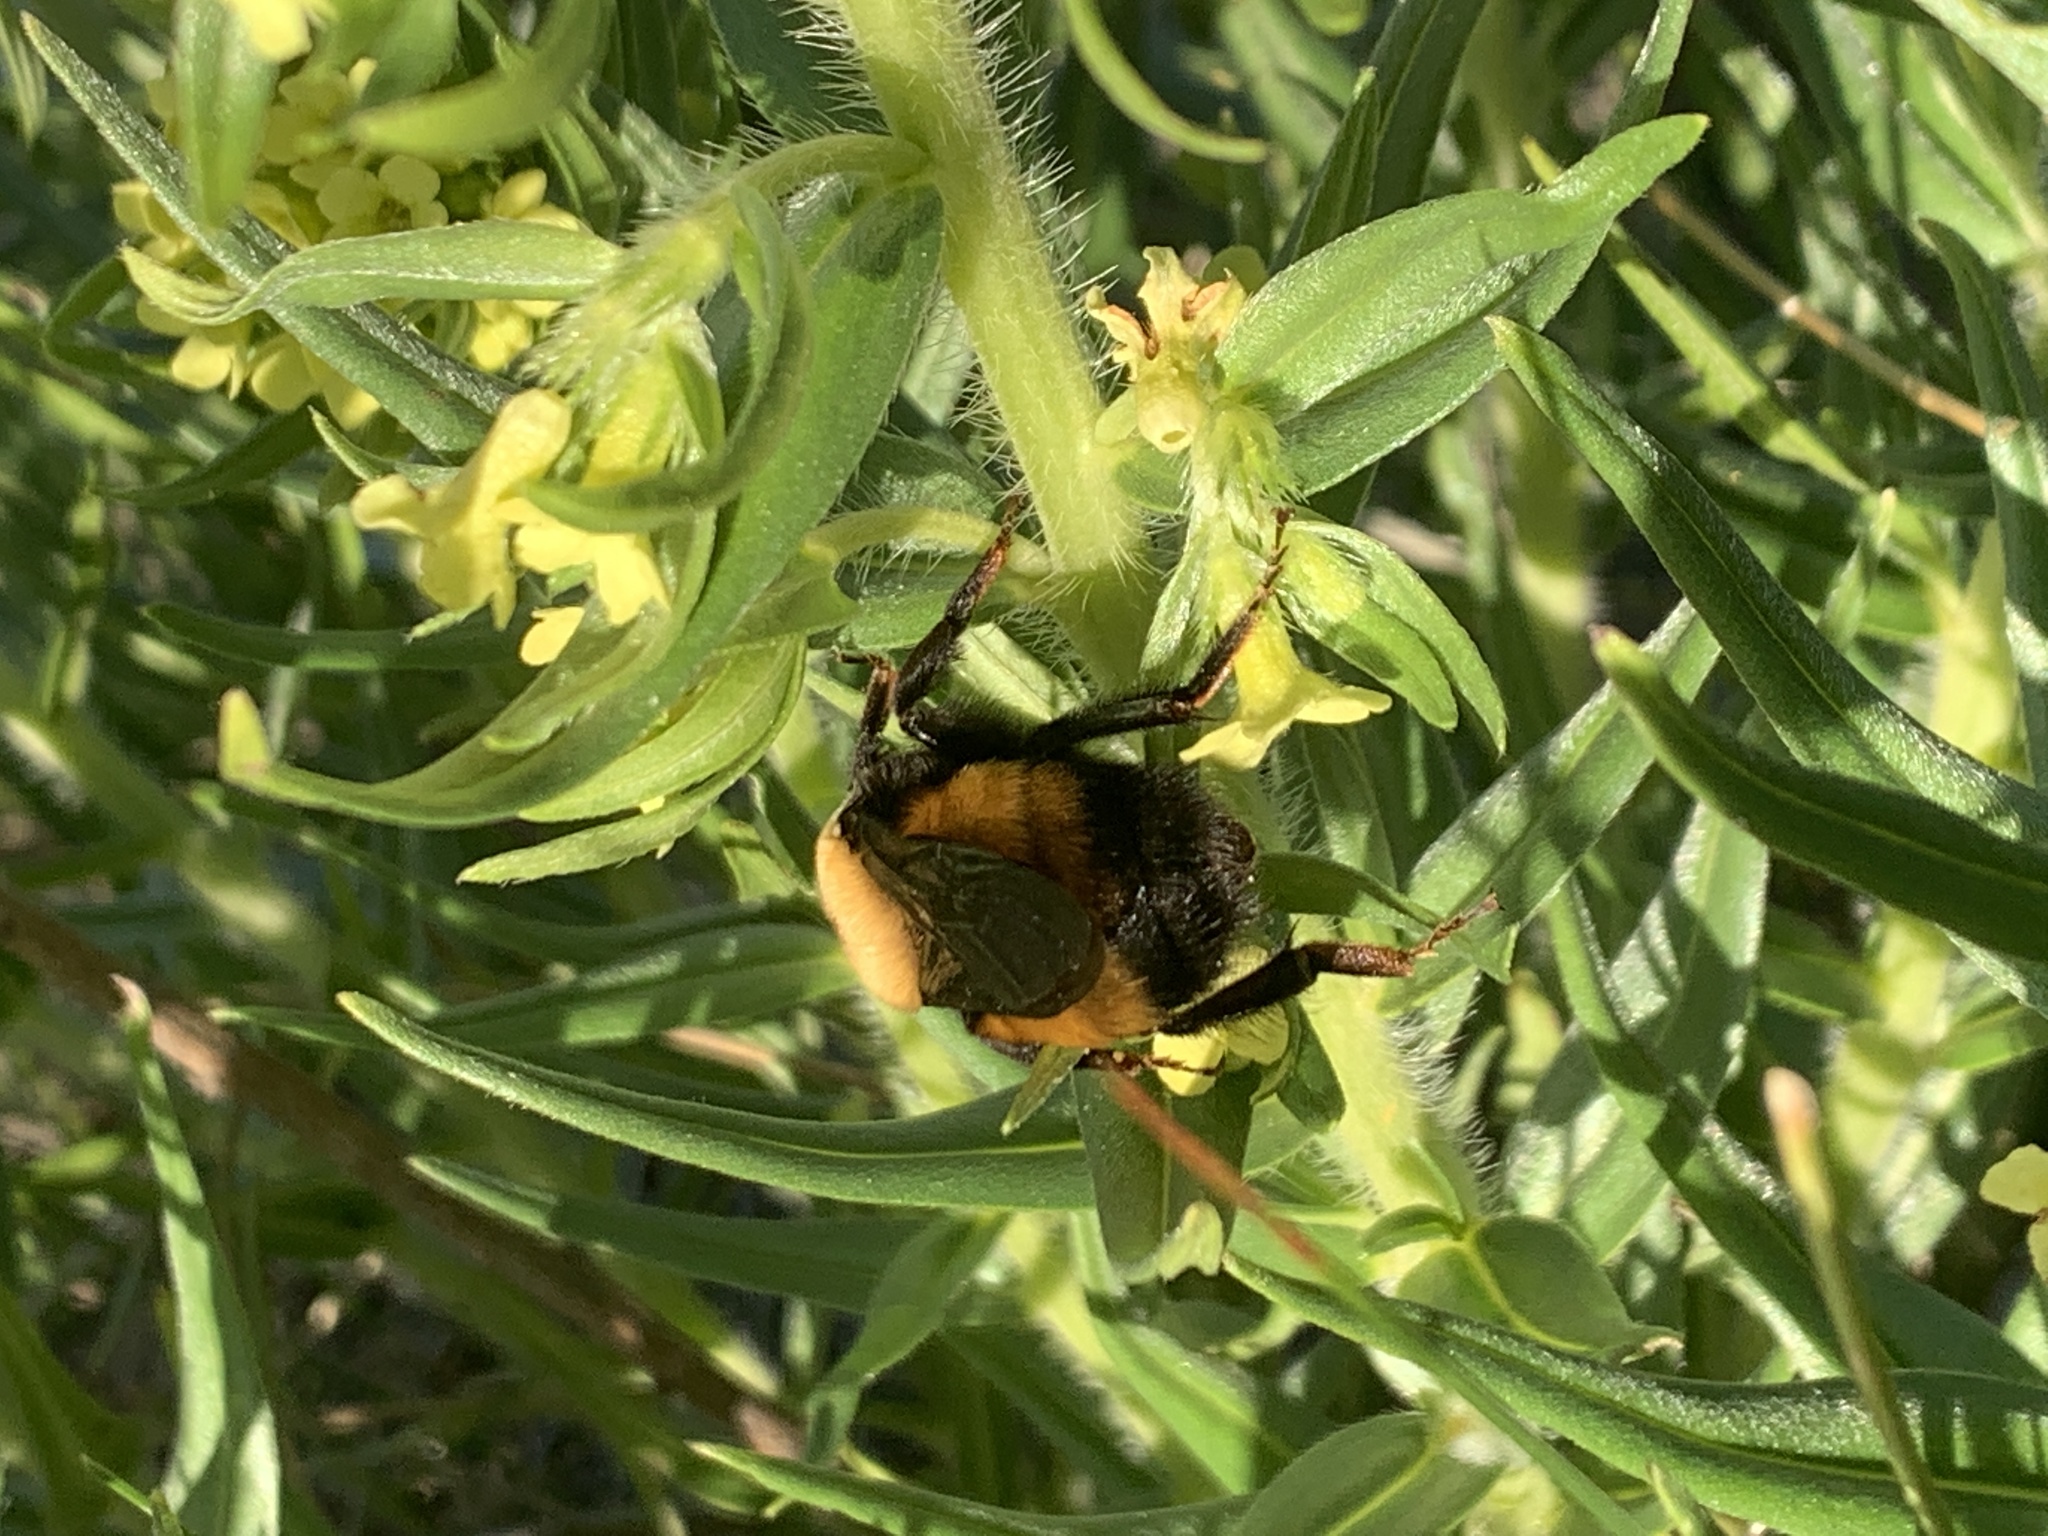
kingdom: Animalia
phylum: Arthropoda
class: Insecta
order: Hymenoptera
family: Apidae
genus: Bombus
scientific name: Bombus nevadensis
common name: Nevada bumble bee
